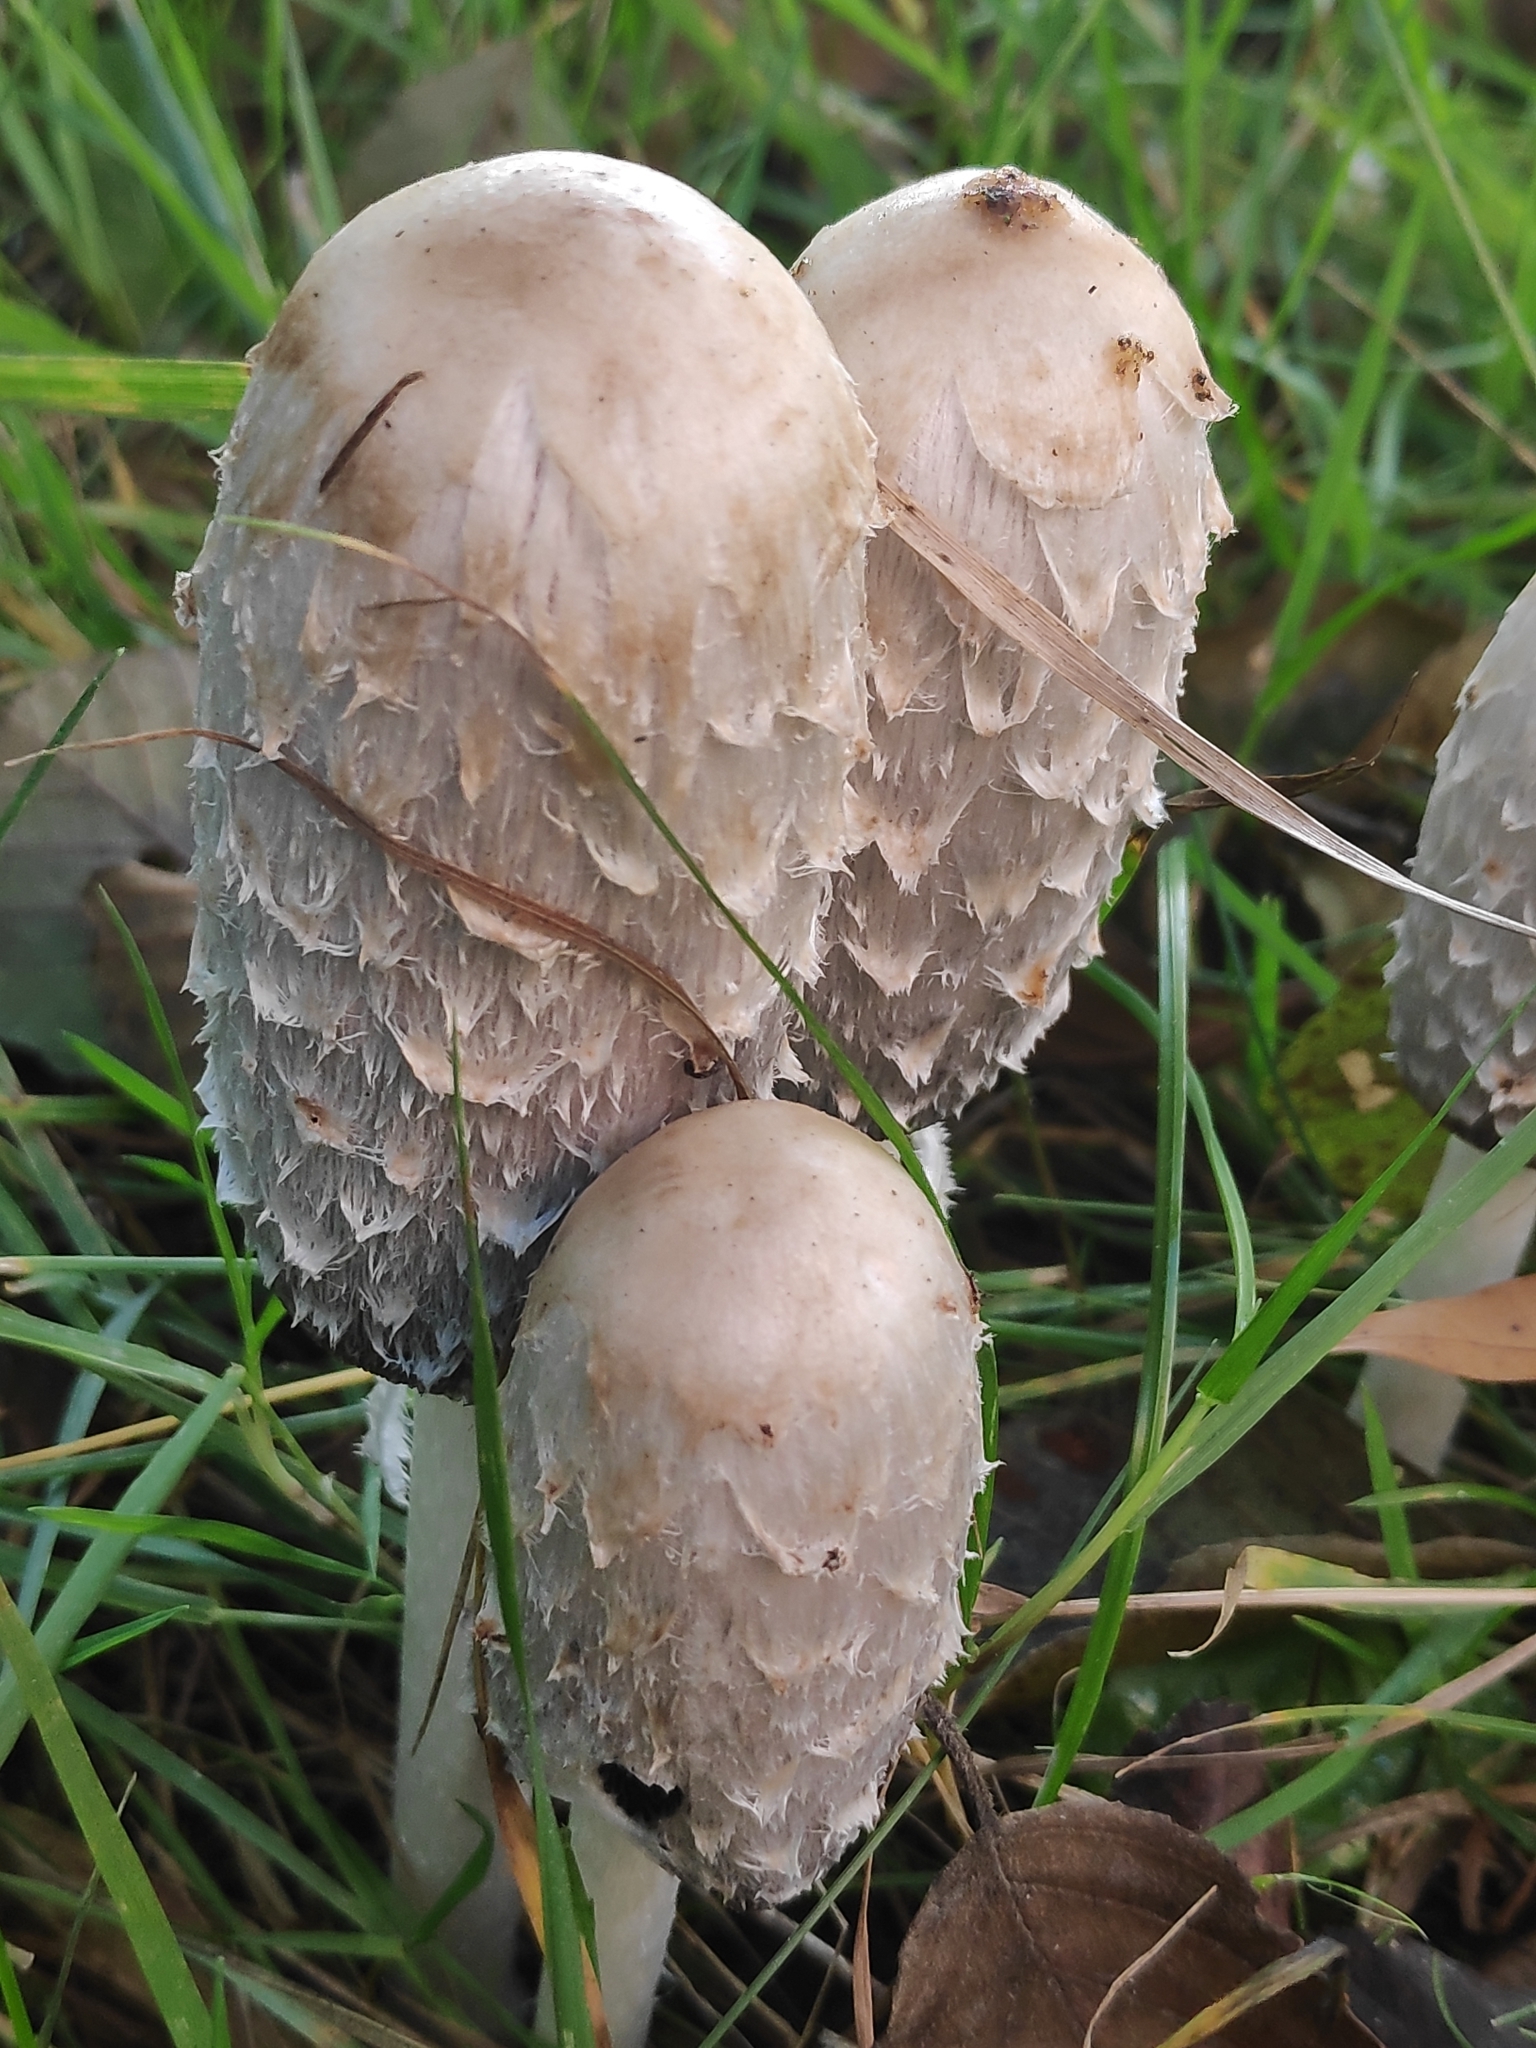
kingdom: Fungi
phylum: Basidiomycota
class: Agaricomycetes
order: Agaricales
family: Agaricaceae
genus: Coprinus
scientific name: Coprinus comatus
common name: Lawyer's wig
